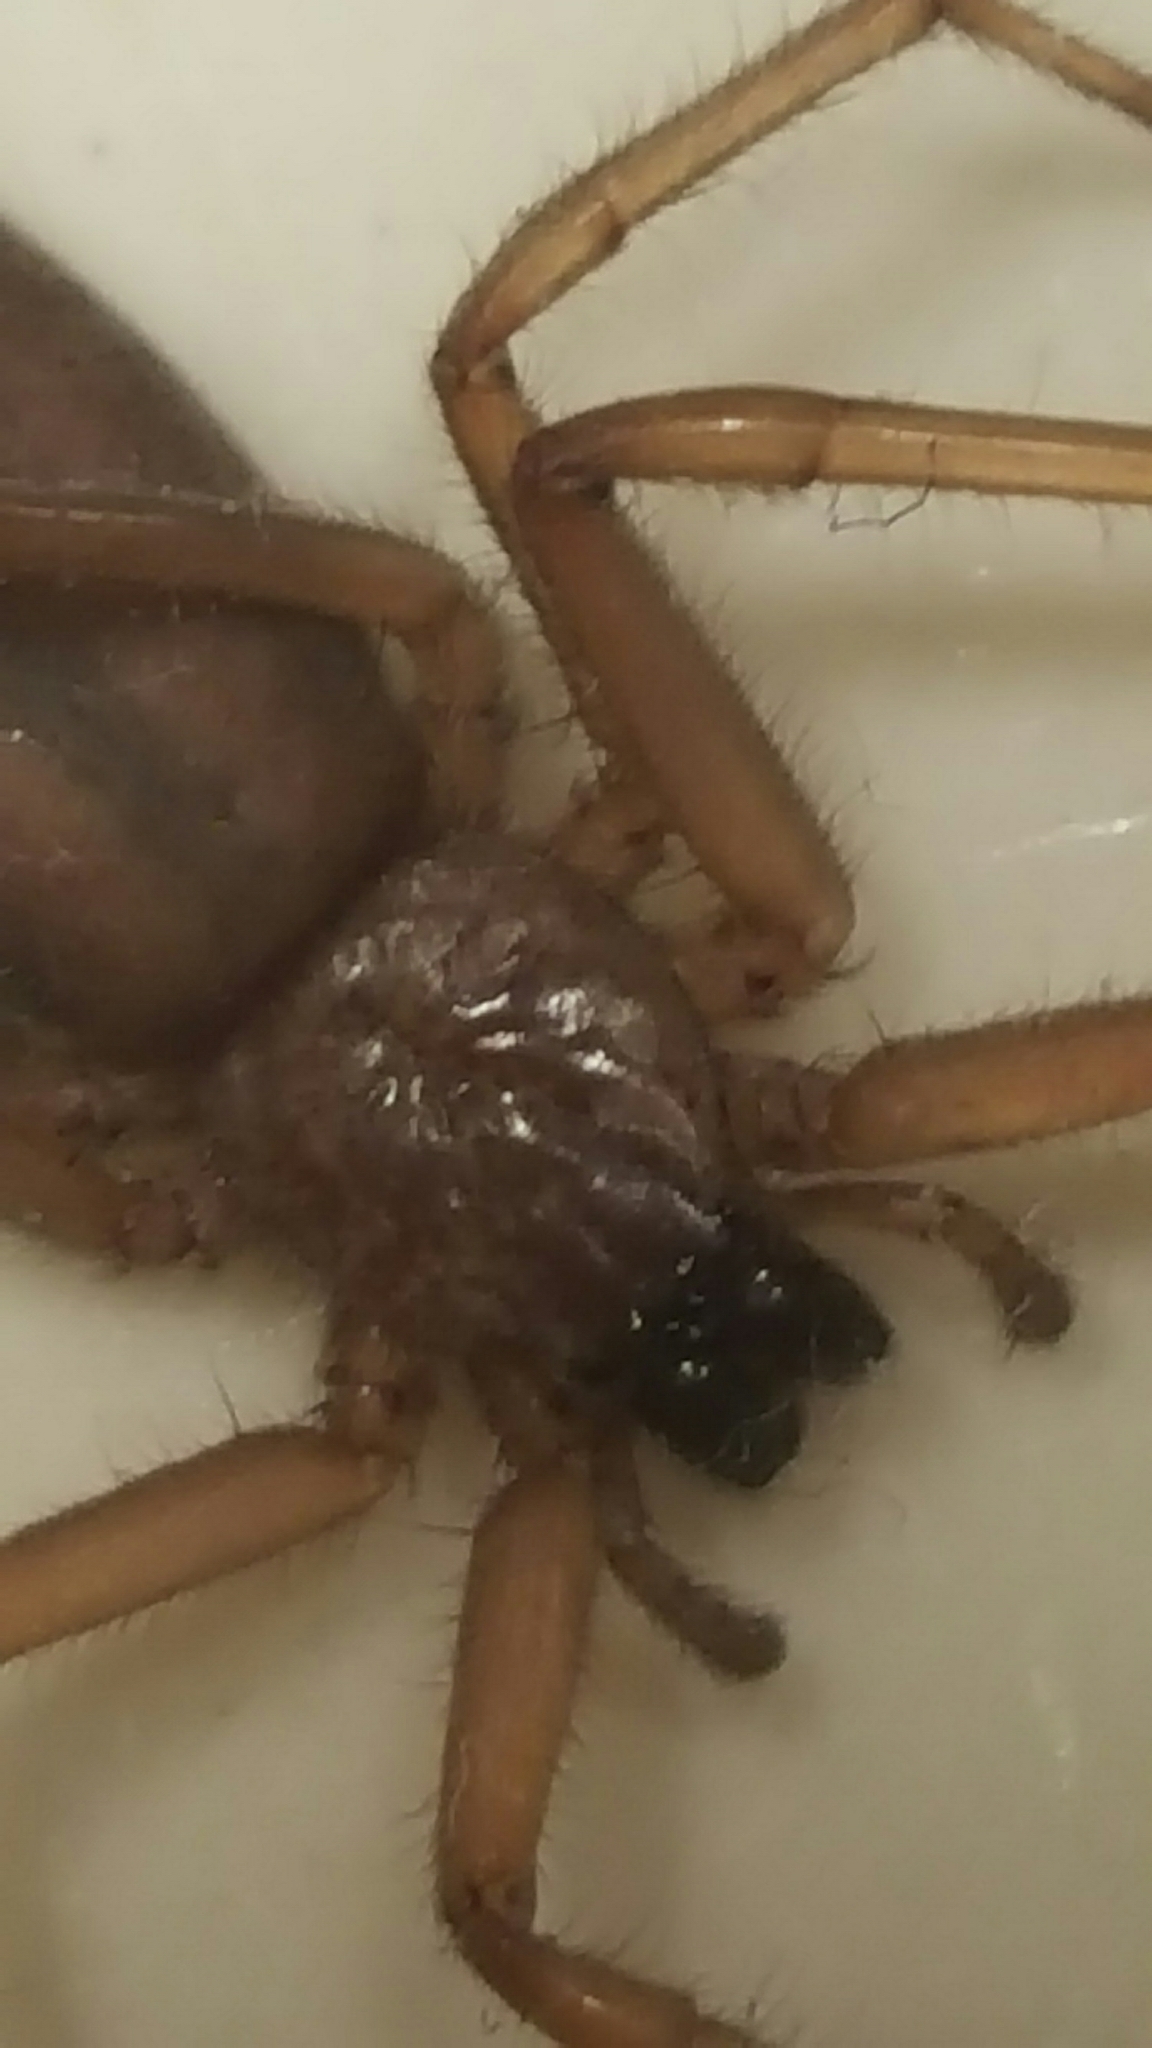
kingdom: Animalia
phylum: Arthropoda
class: Arachnida
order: Araneae
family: Trochanteriidae
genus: Hemicloea
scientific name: Hemicloea rogenhoferi
